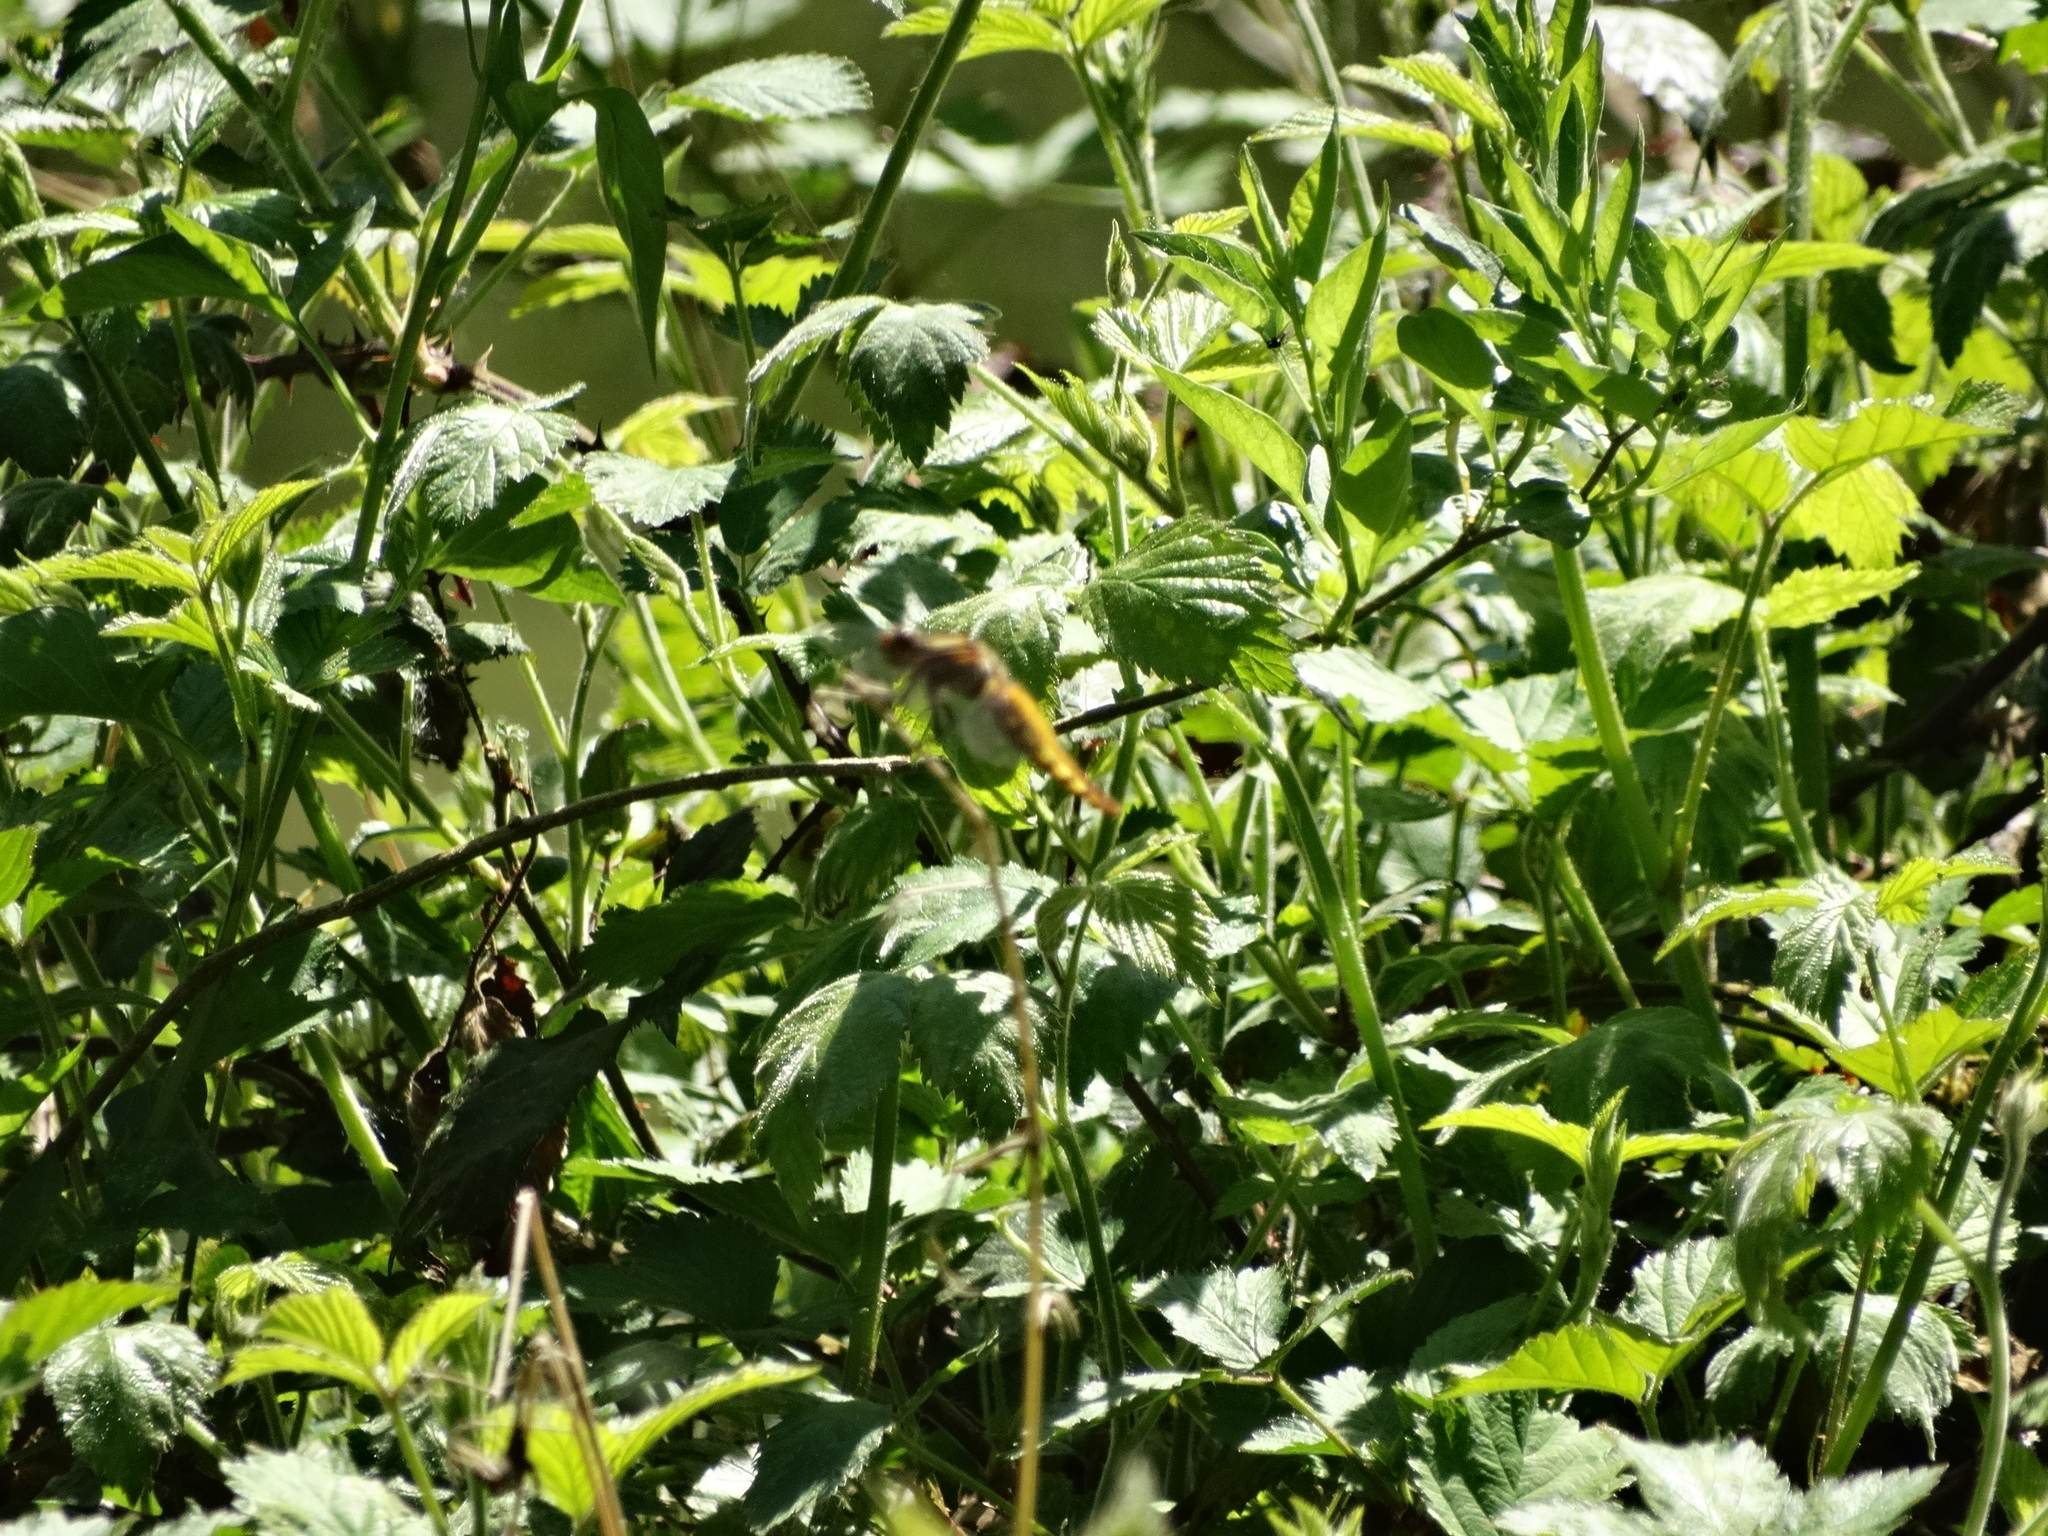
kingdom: Animalia
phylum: Arthropoda
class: Insecta
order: Odonata
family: Libellulidae
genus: Libellula
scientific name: Libellula depressa
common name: Broad-bodied chaser
